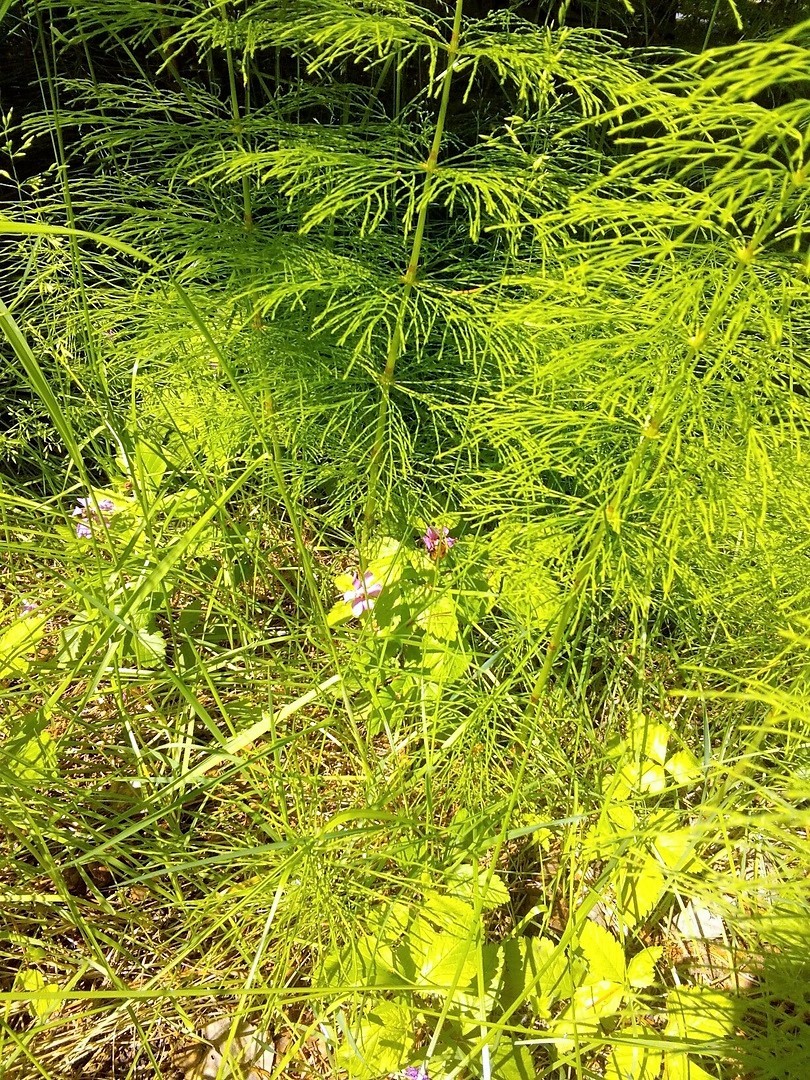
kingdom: Plantae
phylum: Tracheophyta
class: Polypodiopsida
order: Equisetales
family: Equisetaceae
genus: Equisetum
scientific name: Equisetum sylvaticum
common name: Wood horsetail
